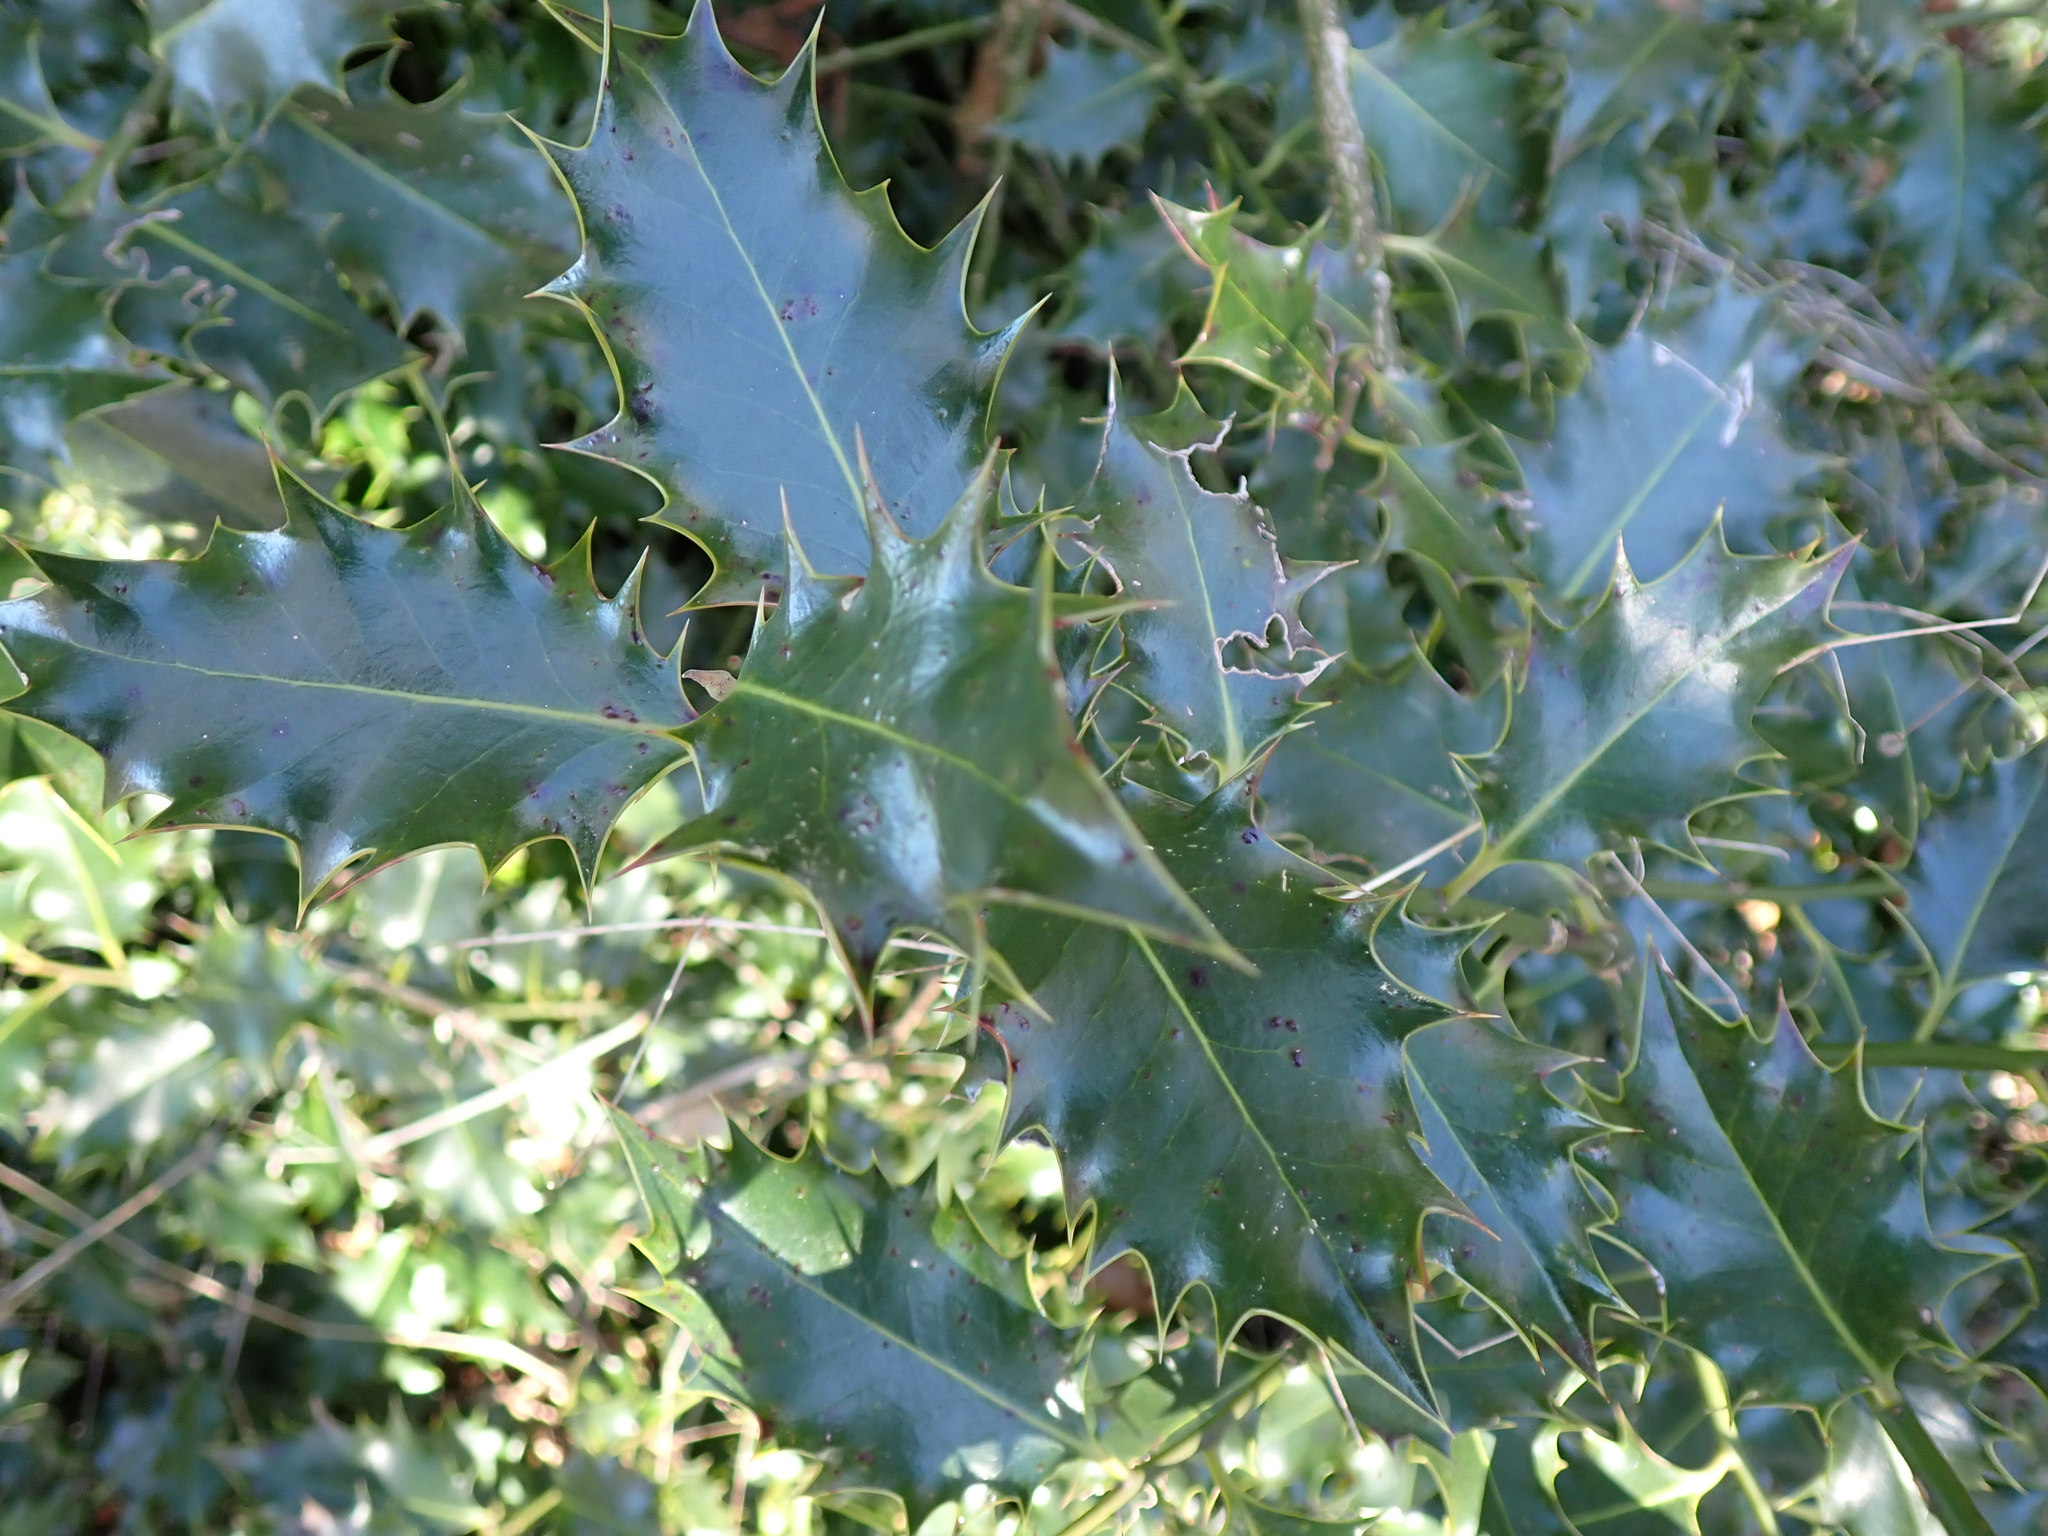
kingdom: Plantae
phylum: Tracheophyta
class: Magnoliopsida
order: Aquifoliales
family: Aquifoliaceae
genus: Ilex
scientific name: Ilex aquifolium
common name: English holly
